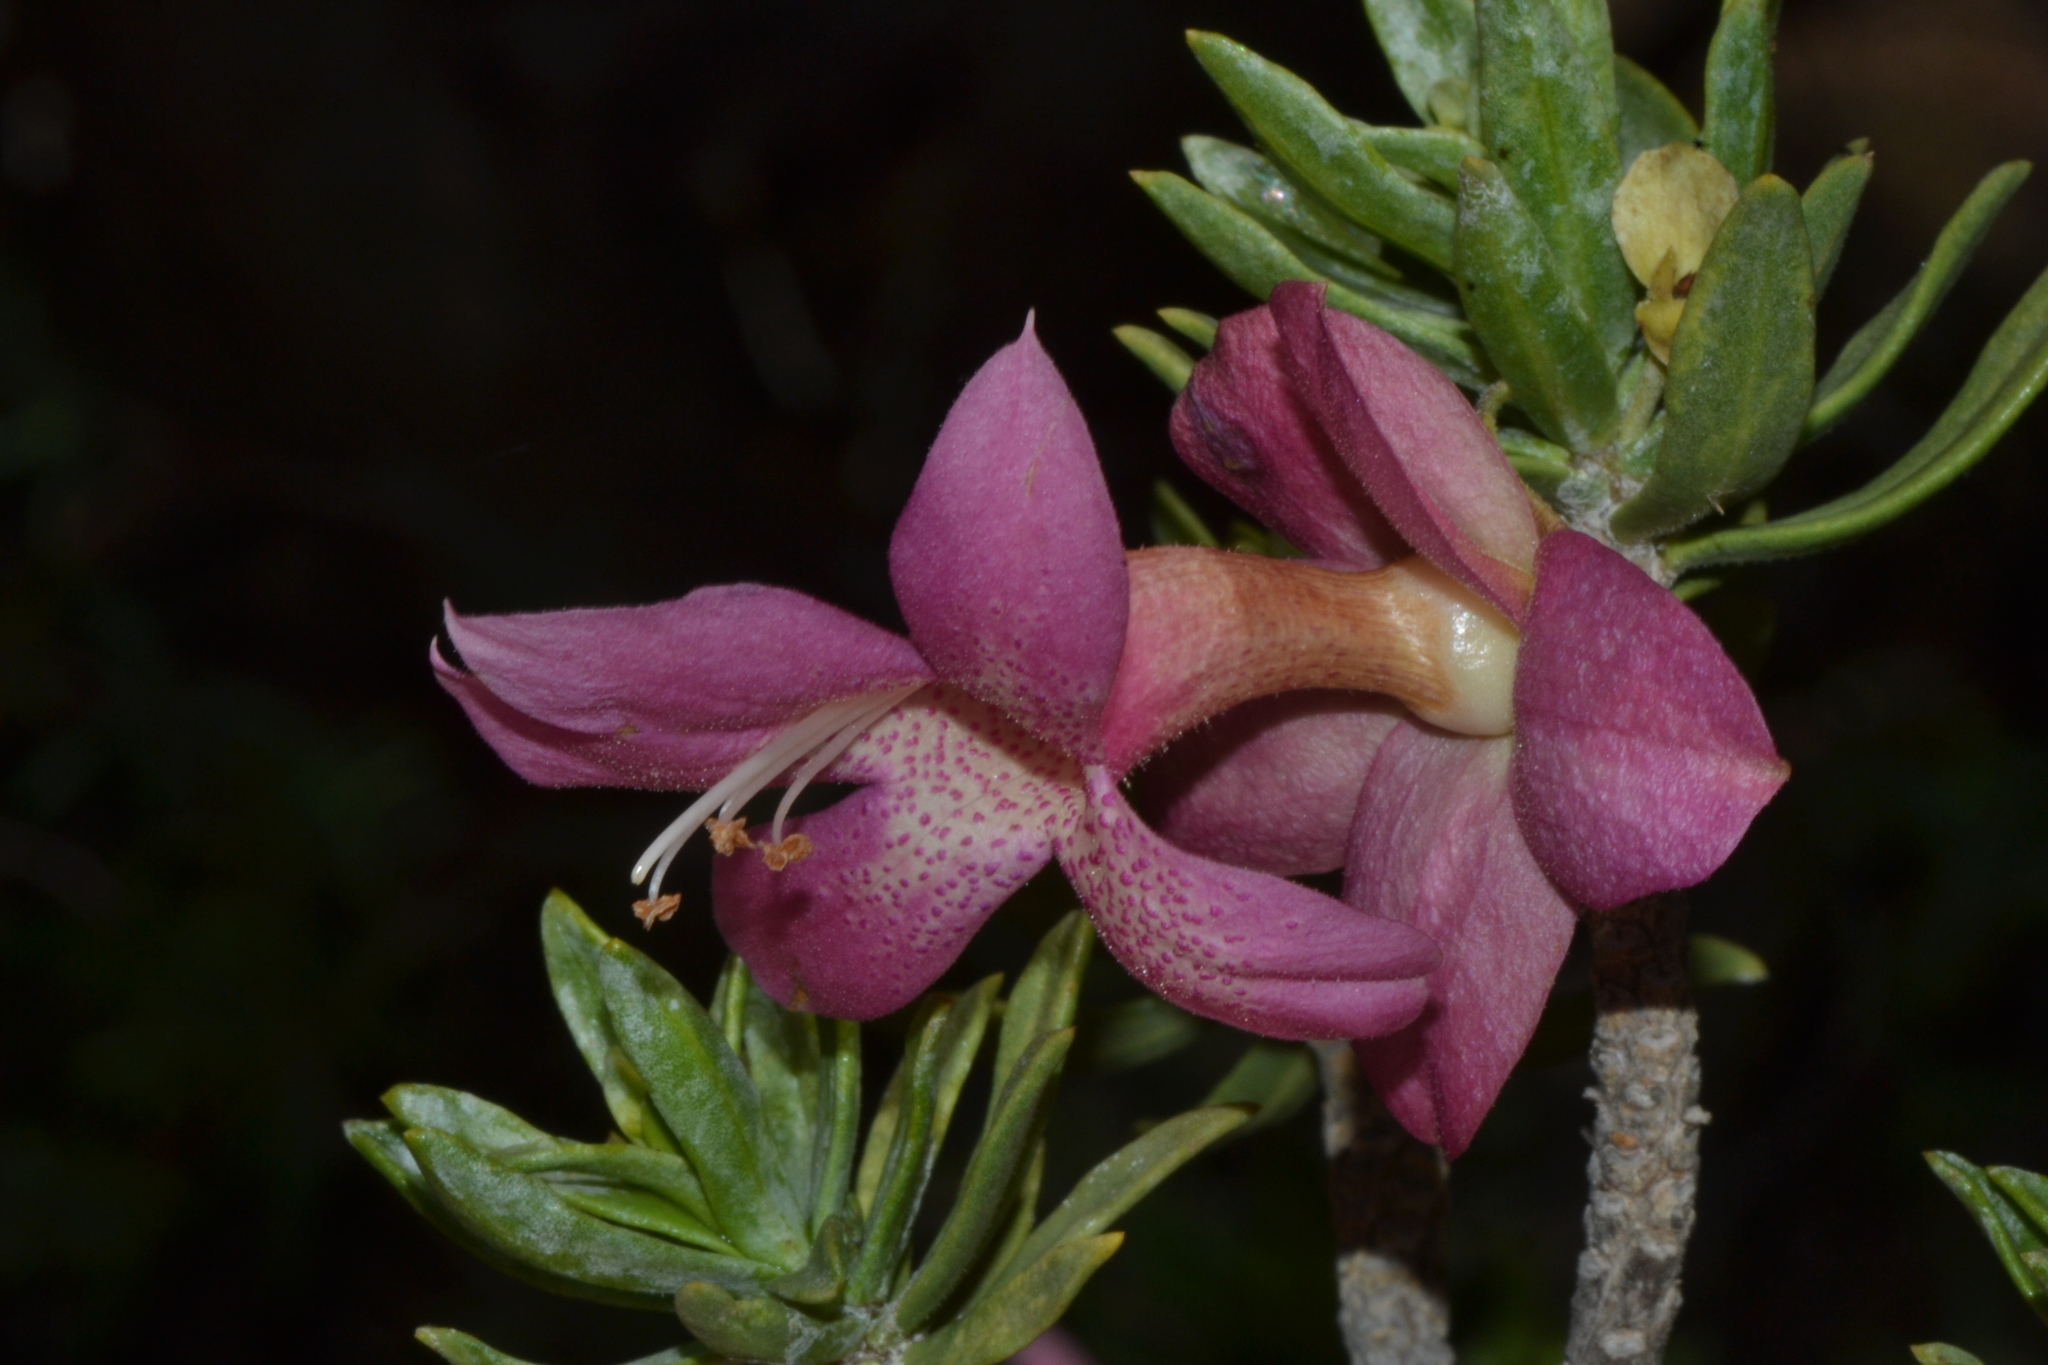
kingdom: Plantae
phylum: Tracheophyta
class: Magnoliopsida
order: Lamiales
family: Scrophulariaceae
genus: Eremophila
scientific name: Eremophila miniata
